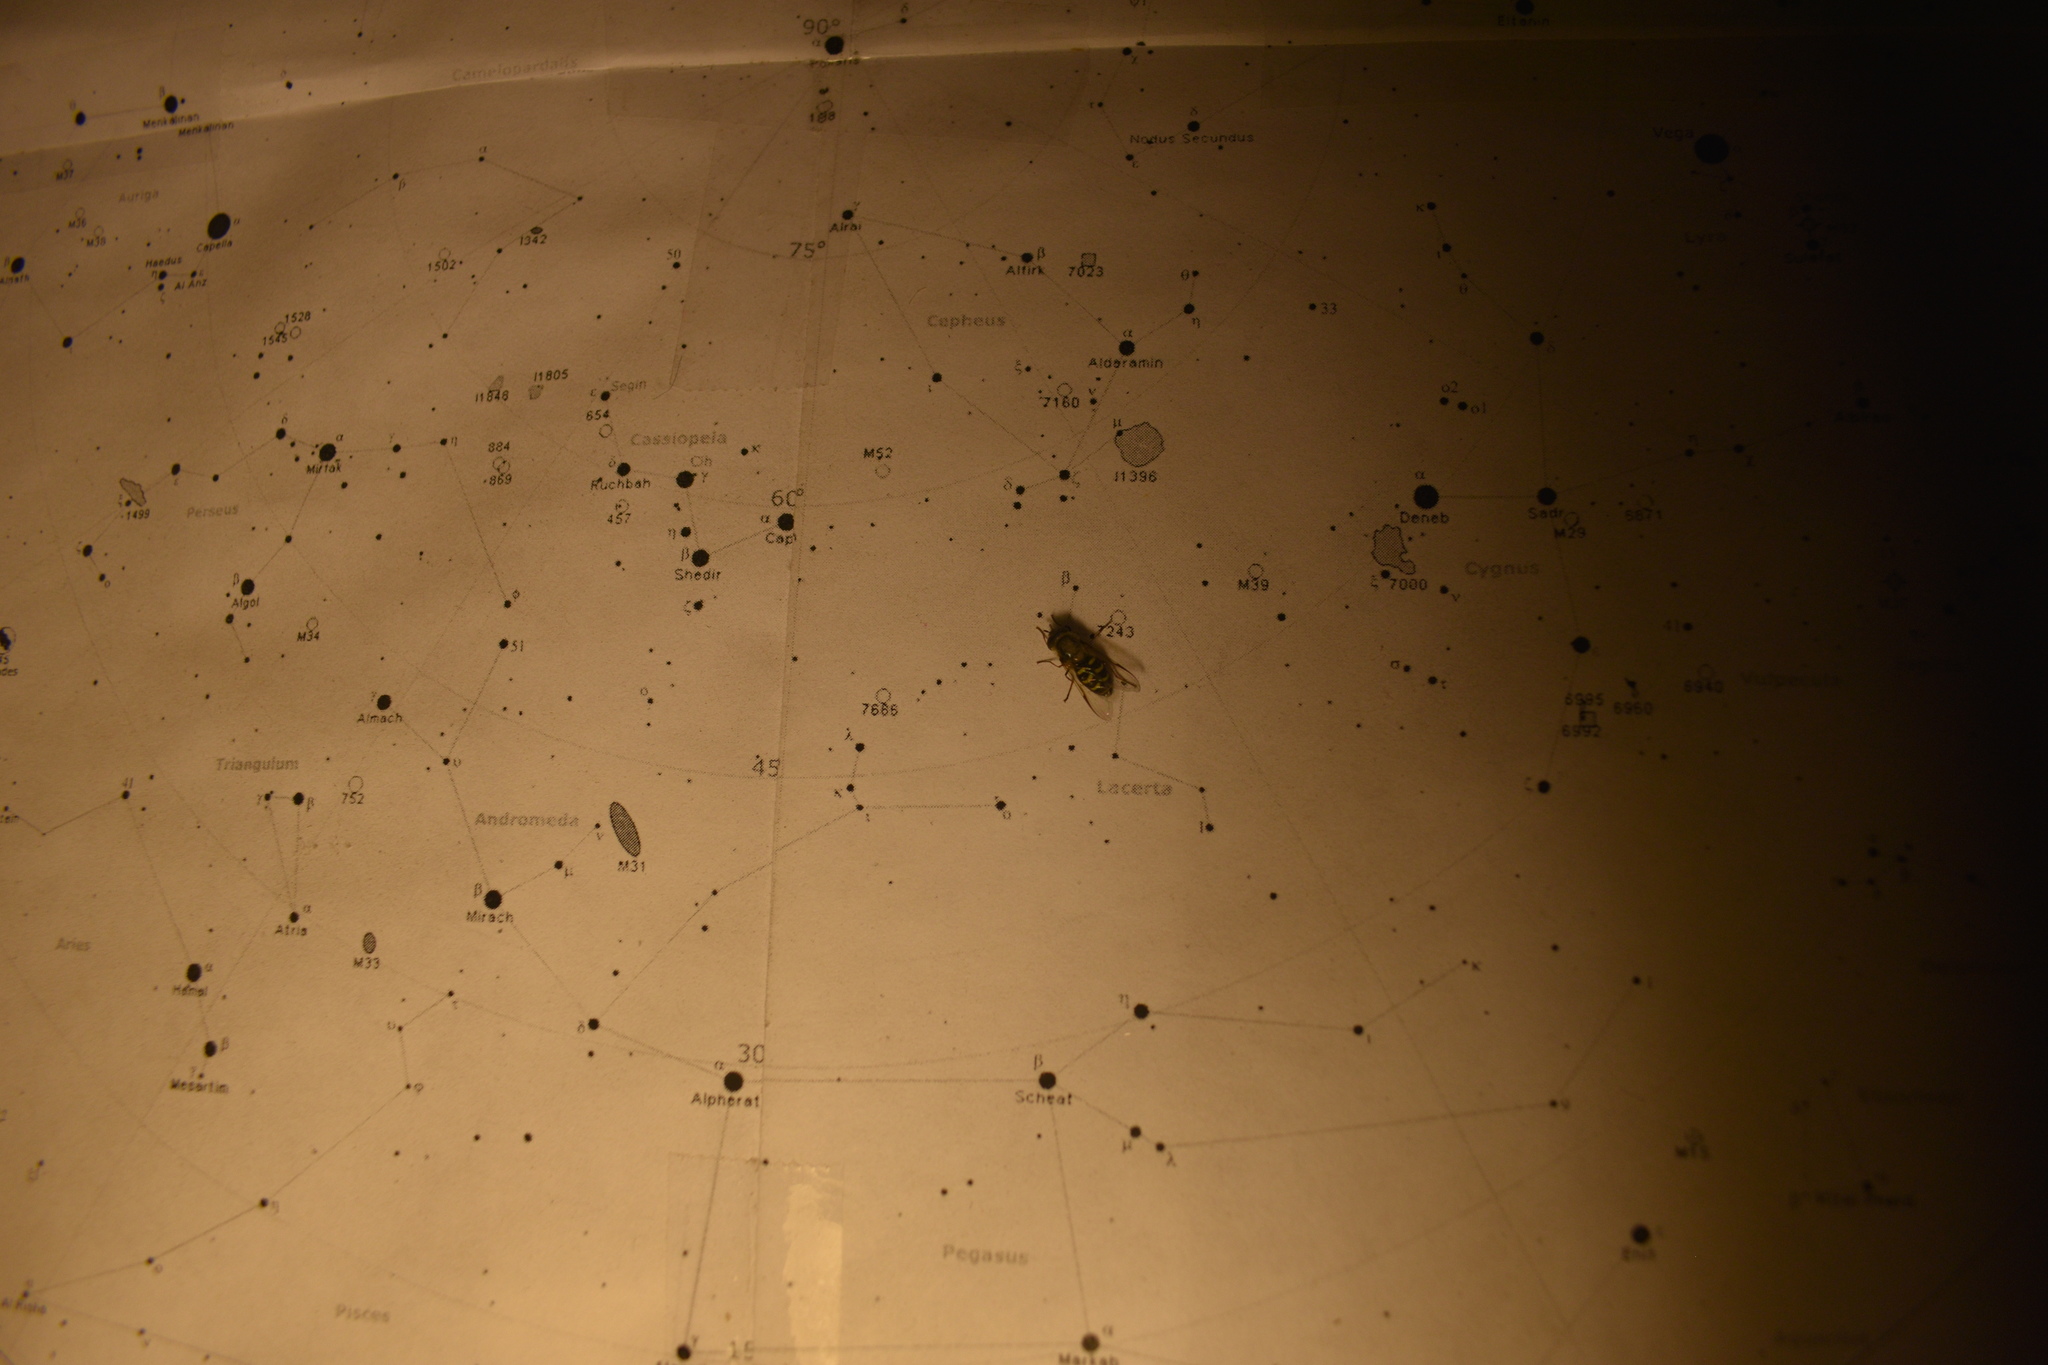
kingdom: Animalia
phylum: Arthropoda
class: Insecta
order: Diptera
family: Syrphidae
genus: Lapposyrphus
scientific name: Lapposyrphus lapponicus
